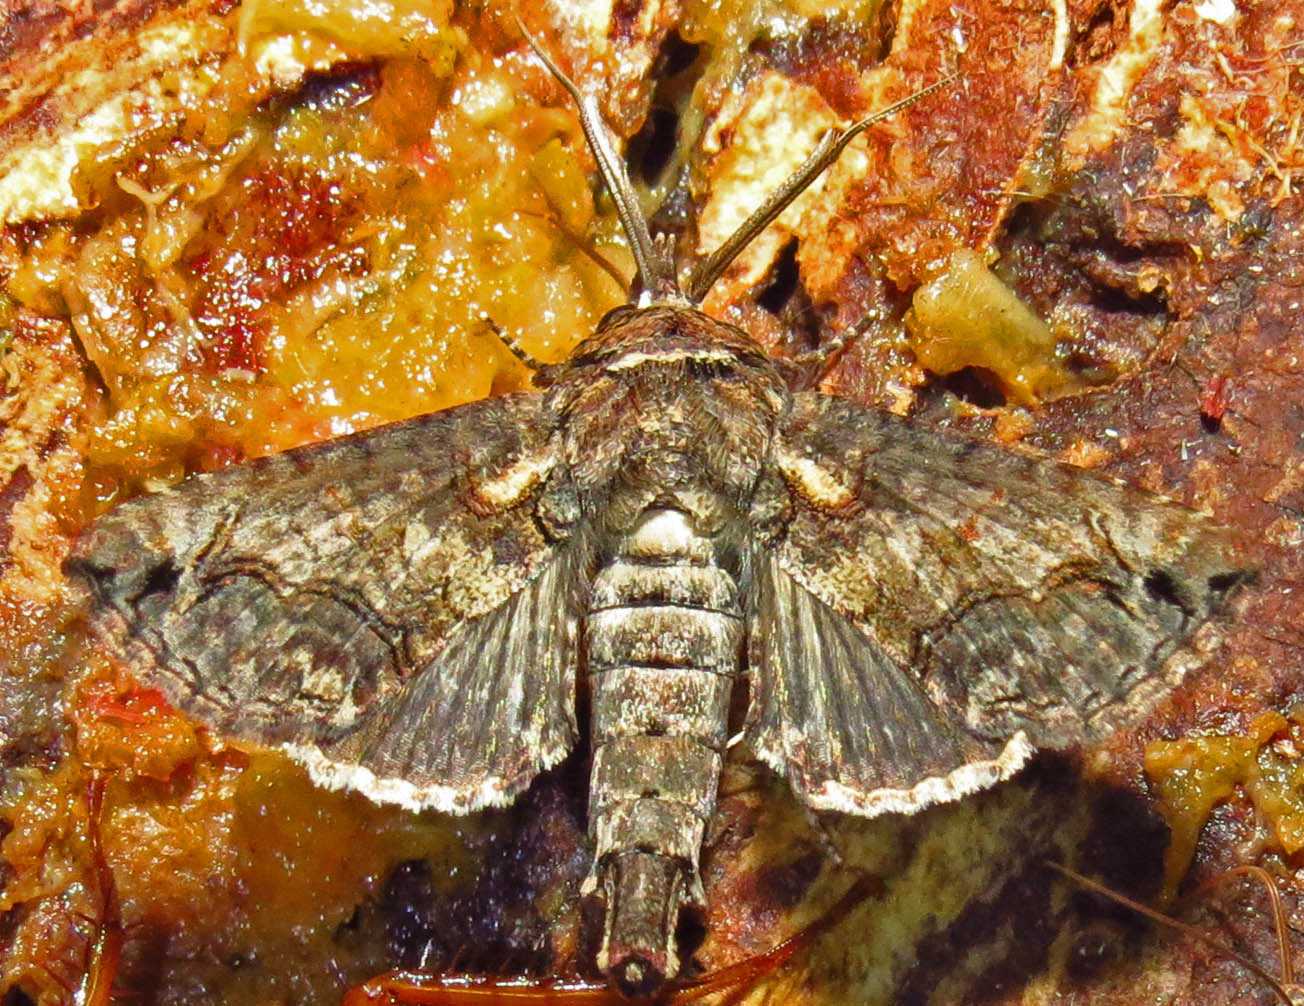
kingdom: Animalia
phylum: Arthropoda
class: Insecta
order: Lepidoptera
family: Euteliidae
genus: Paectes
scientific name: Paectes abrostoloides
